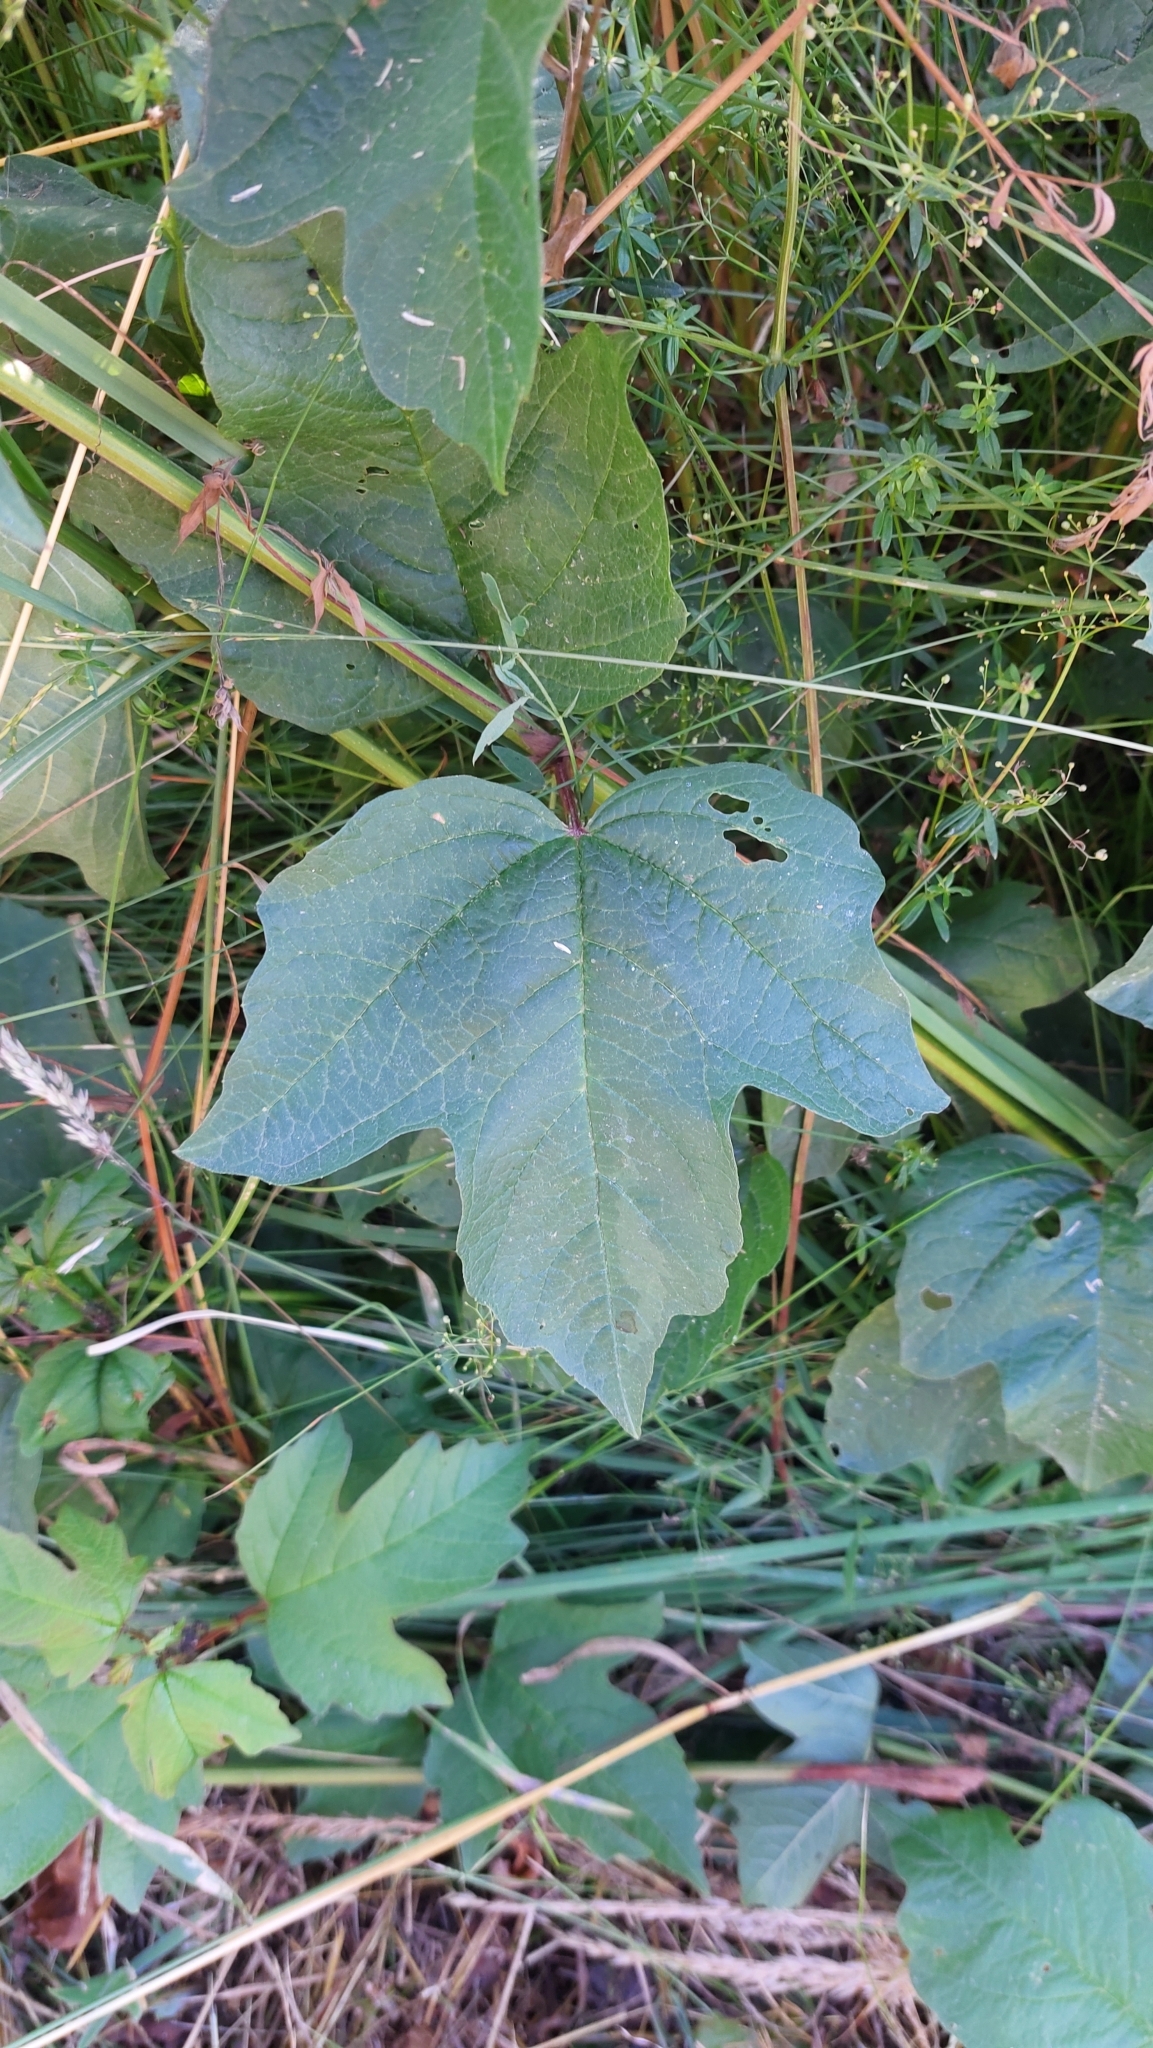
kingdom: Plantae
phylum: Tracheophyta
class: Magnoliopsida
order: Dipsacales
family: Viburnaceae
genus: Viburnum
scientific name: Viburnum opulus
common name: Guelder-rose
